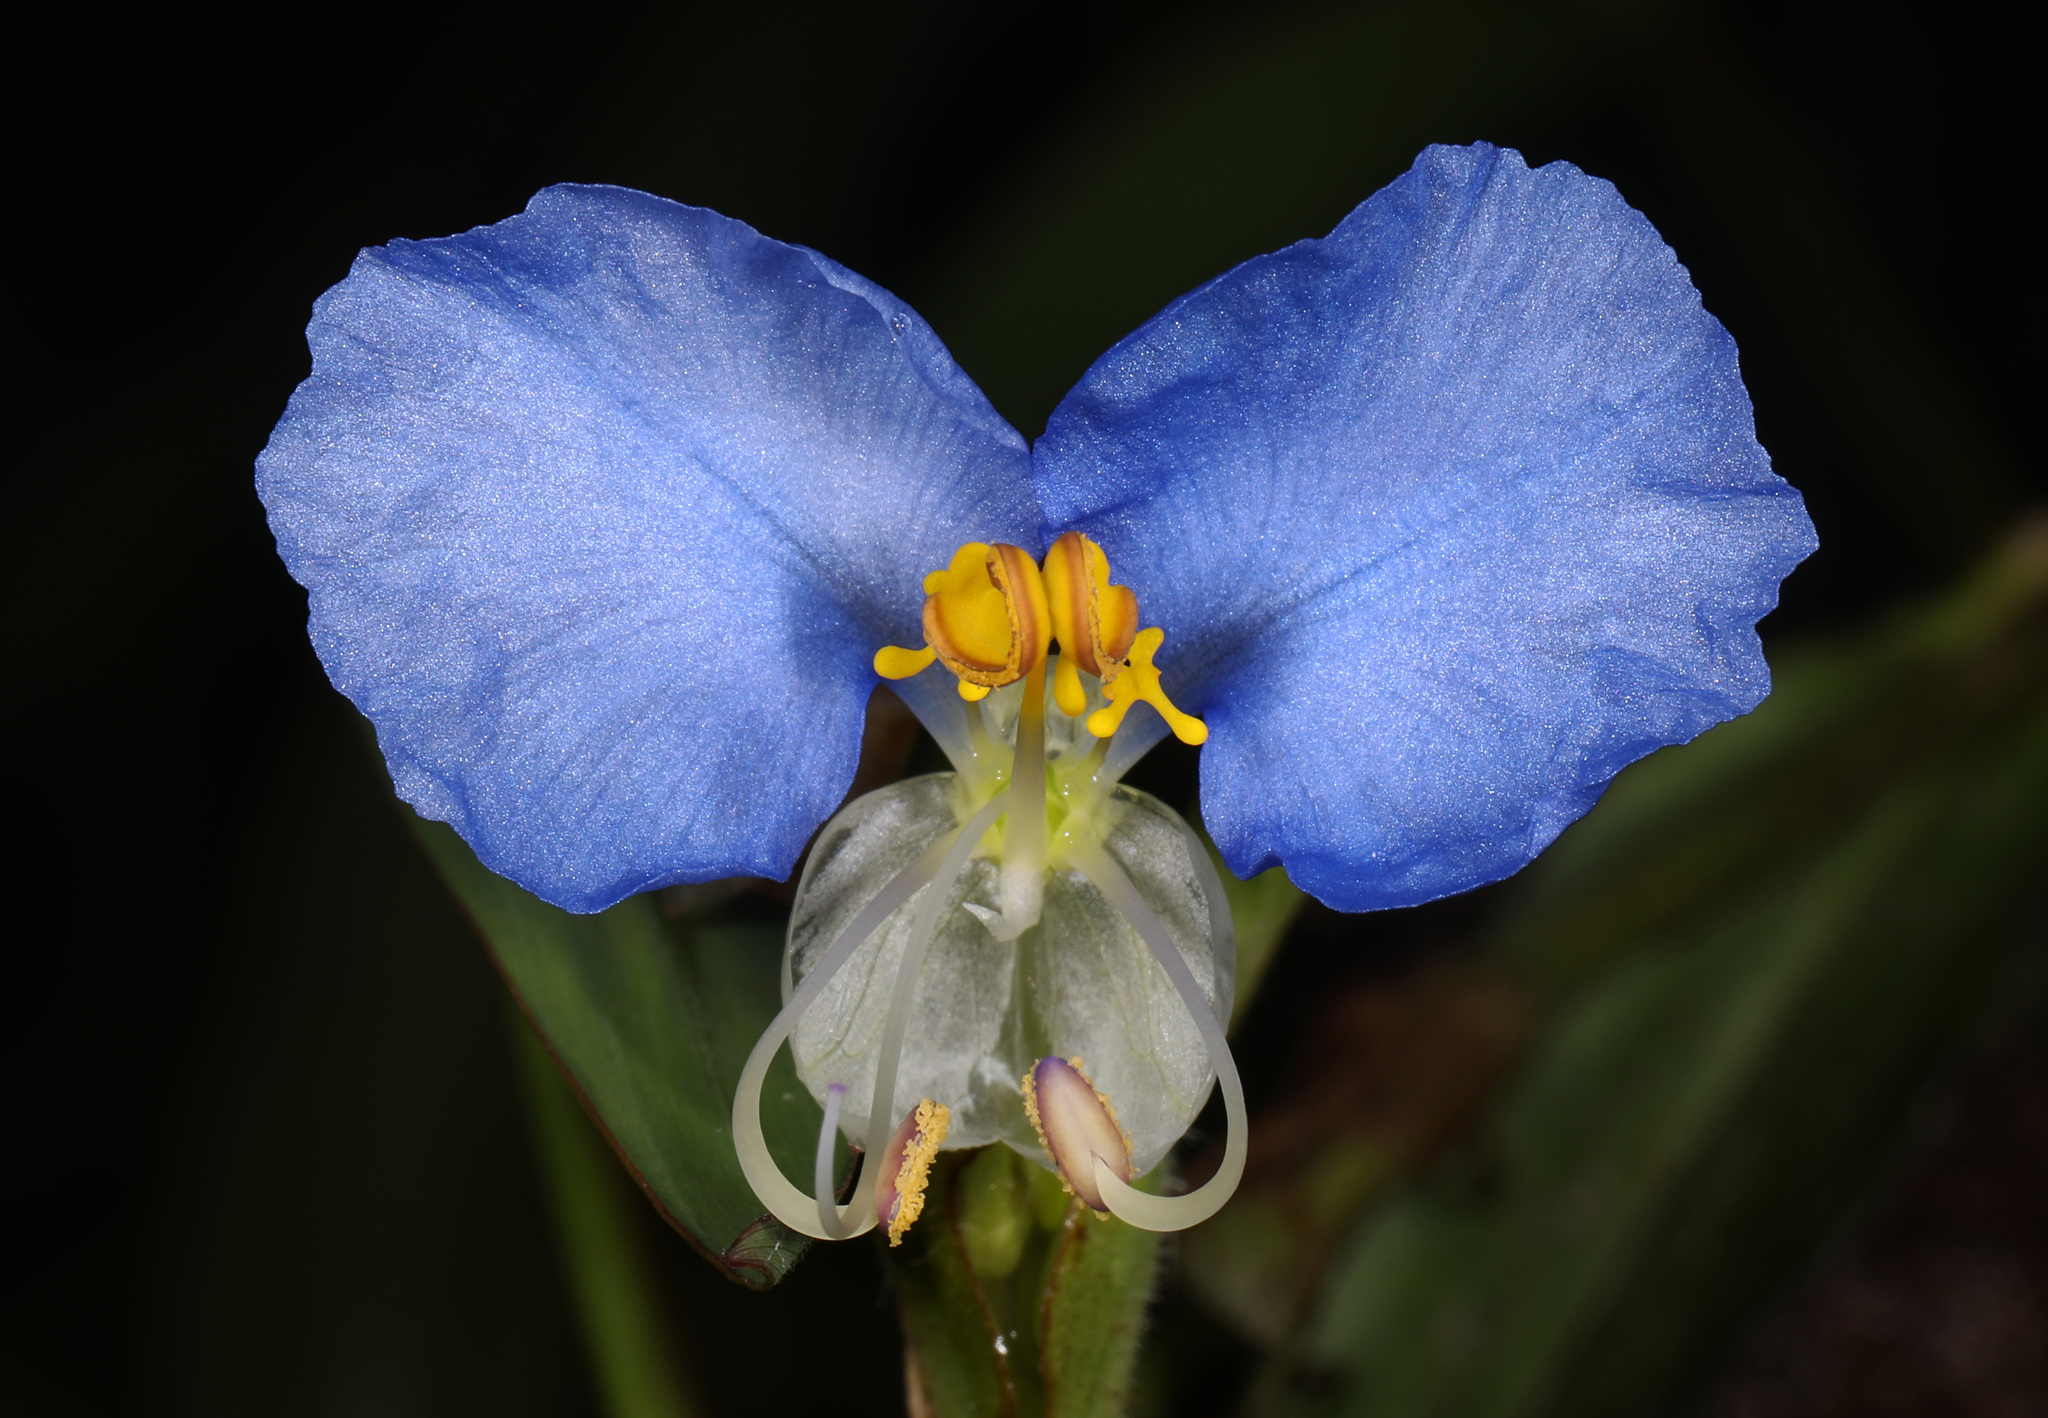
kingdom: Plantae
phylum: Tracheophyta
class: Liliopsida
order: Commelinales
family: Commelinaceae
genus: Commelina
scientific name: Commelina erecta
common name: Blousel blommetjie
